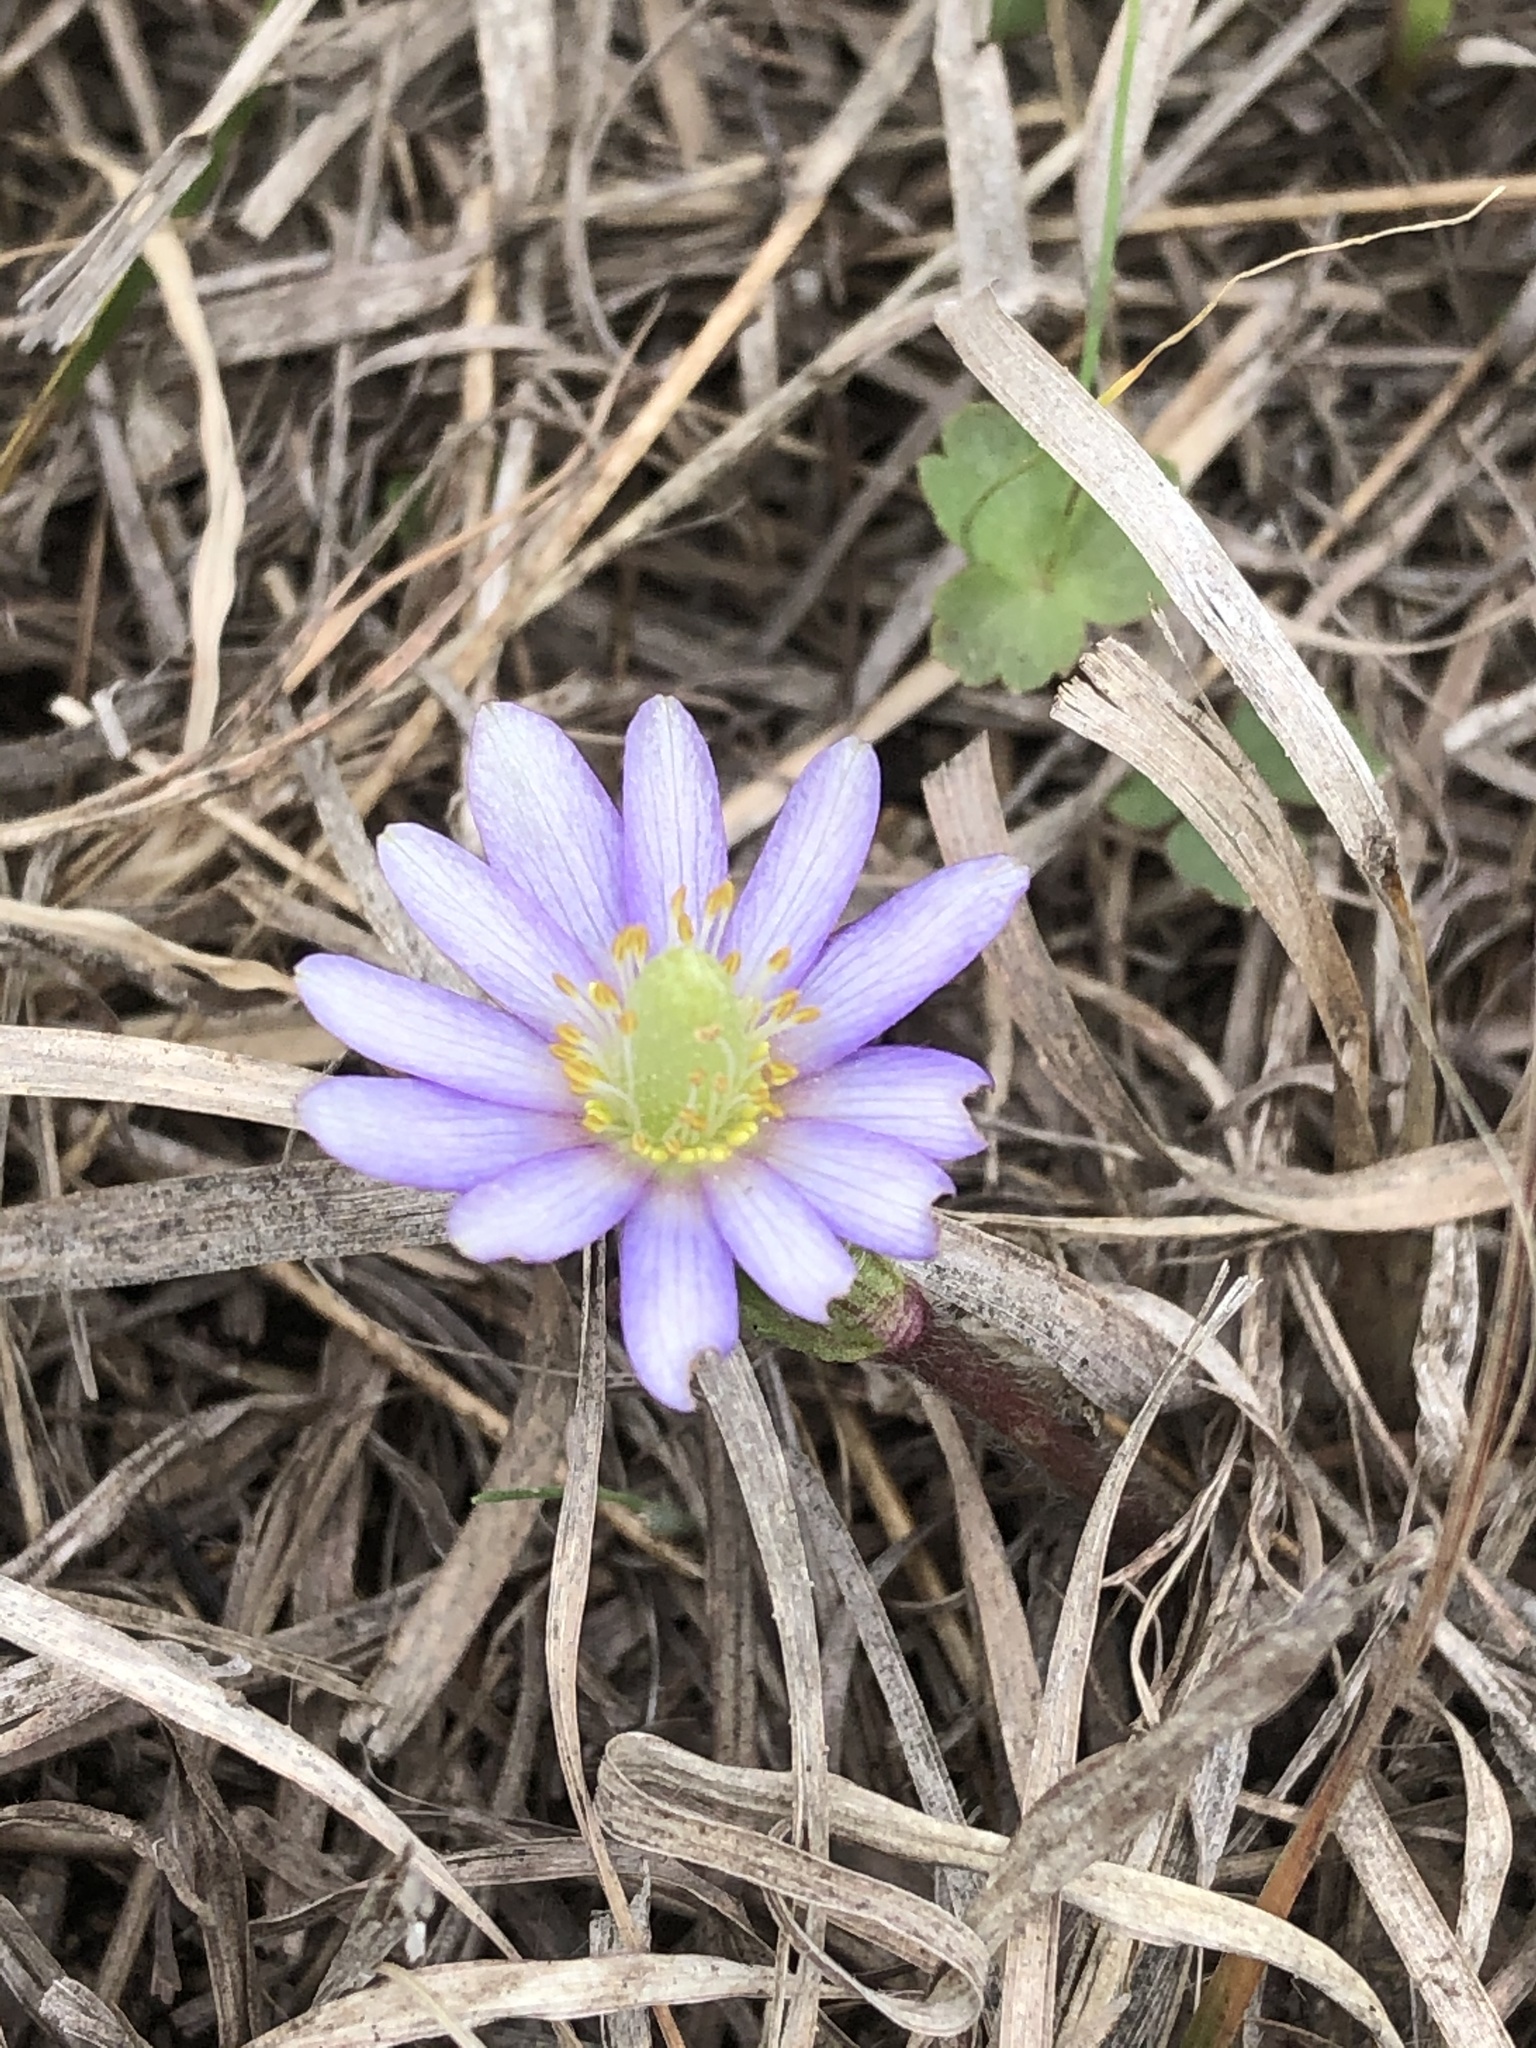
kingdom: Plantae
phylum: Tracheophyta
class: Magnoliopsida
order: Ranunculales
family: Ranunculaceae
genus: Anemone
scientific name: Anemone berlandieri
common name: Ten-petal anemone
